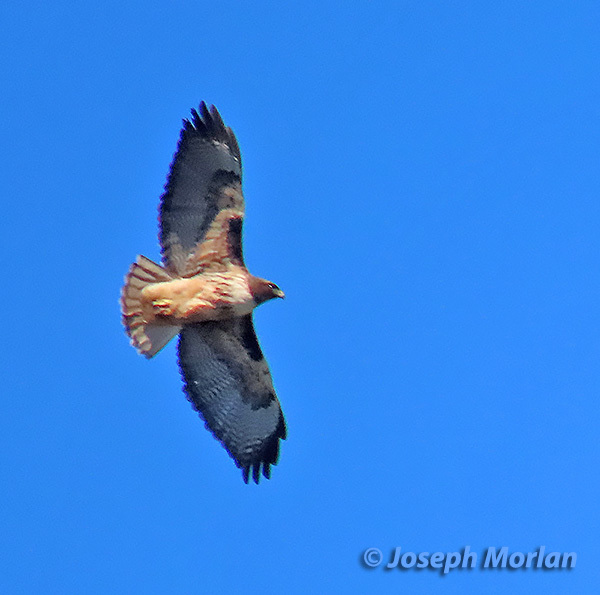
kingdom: Animalia
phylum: Chordata
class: Aves
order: Accipitriformes
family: Accipitridae
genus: Buteo
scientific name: Buteo jamaicensis
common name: Red-tailed hawk
